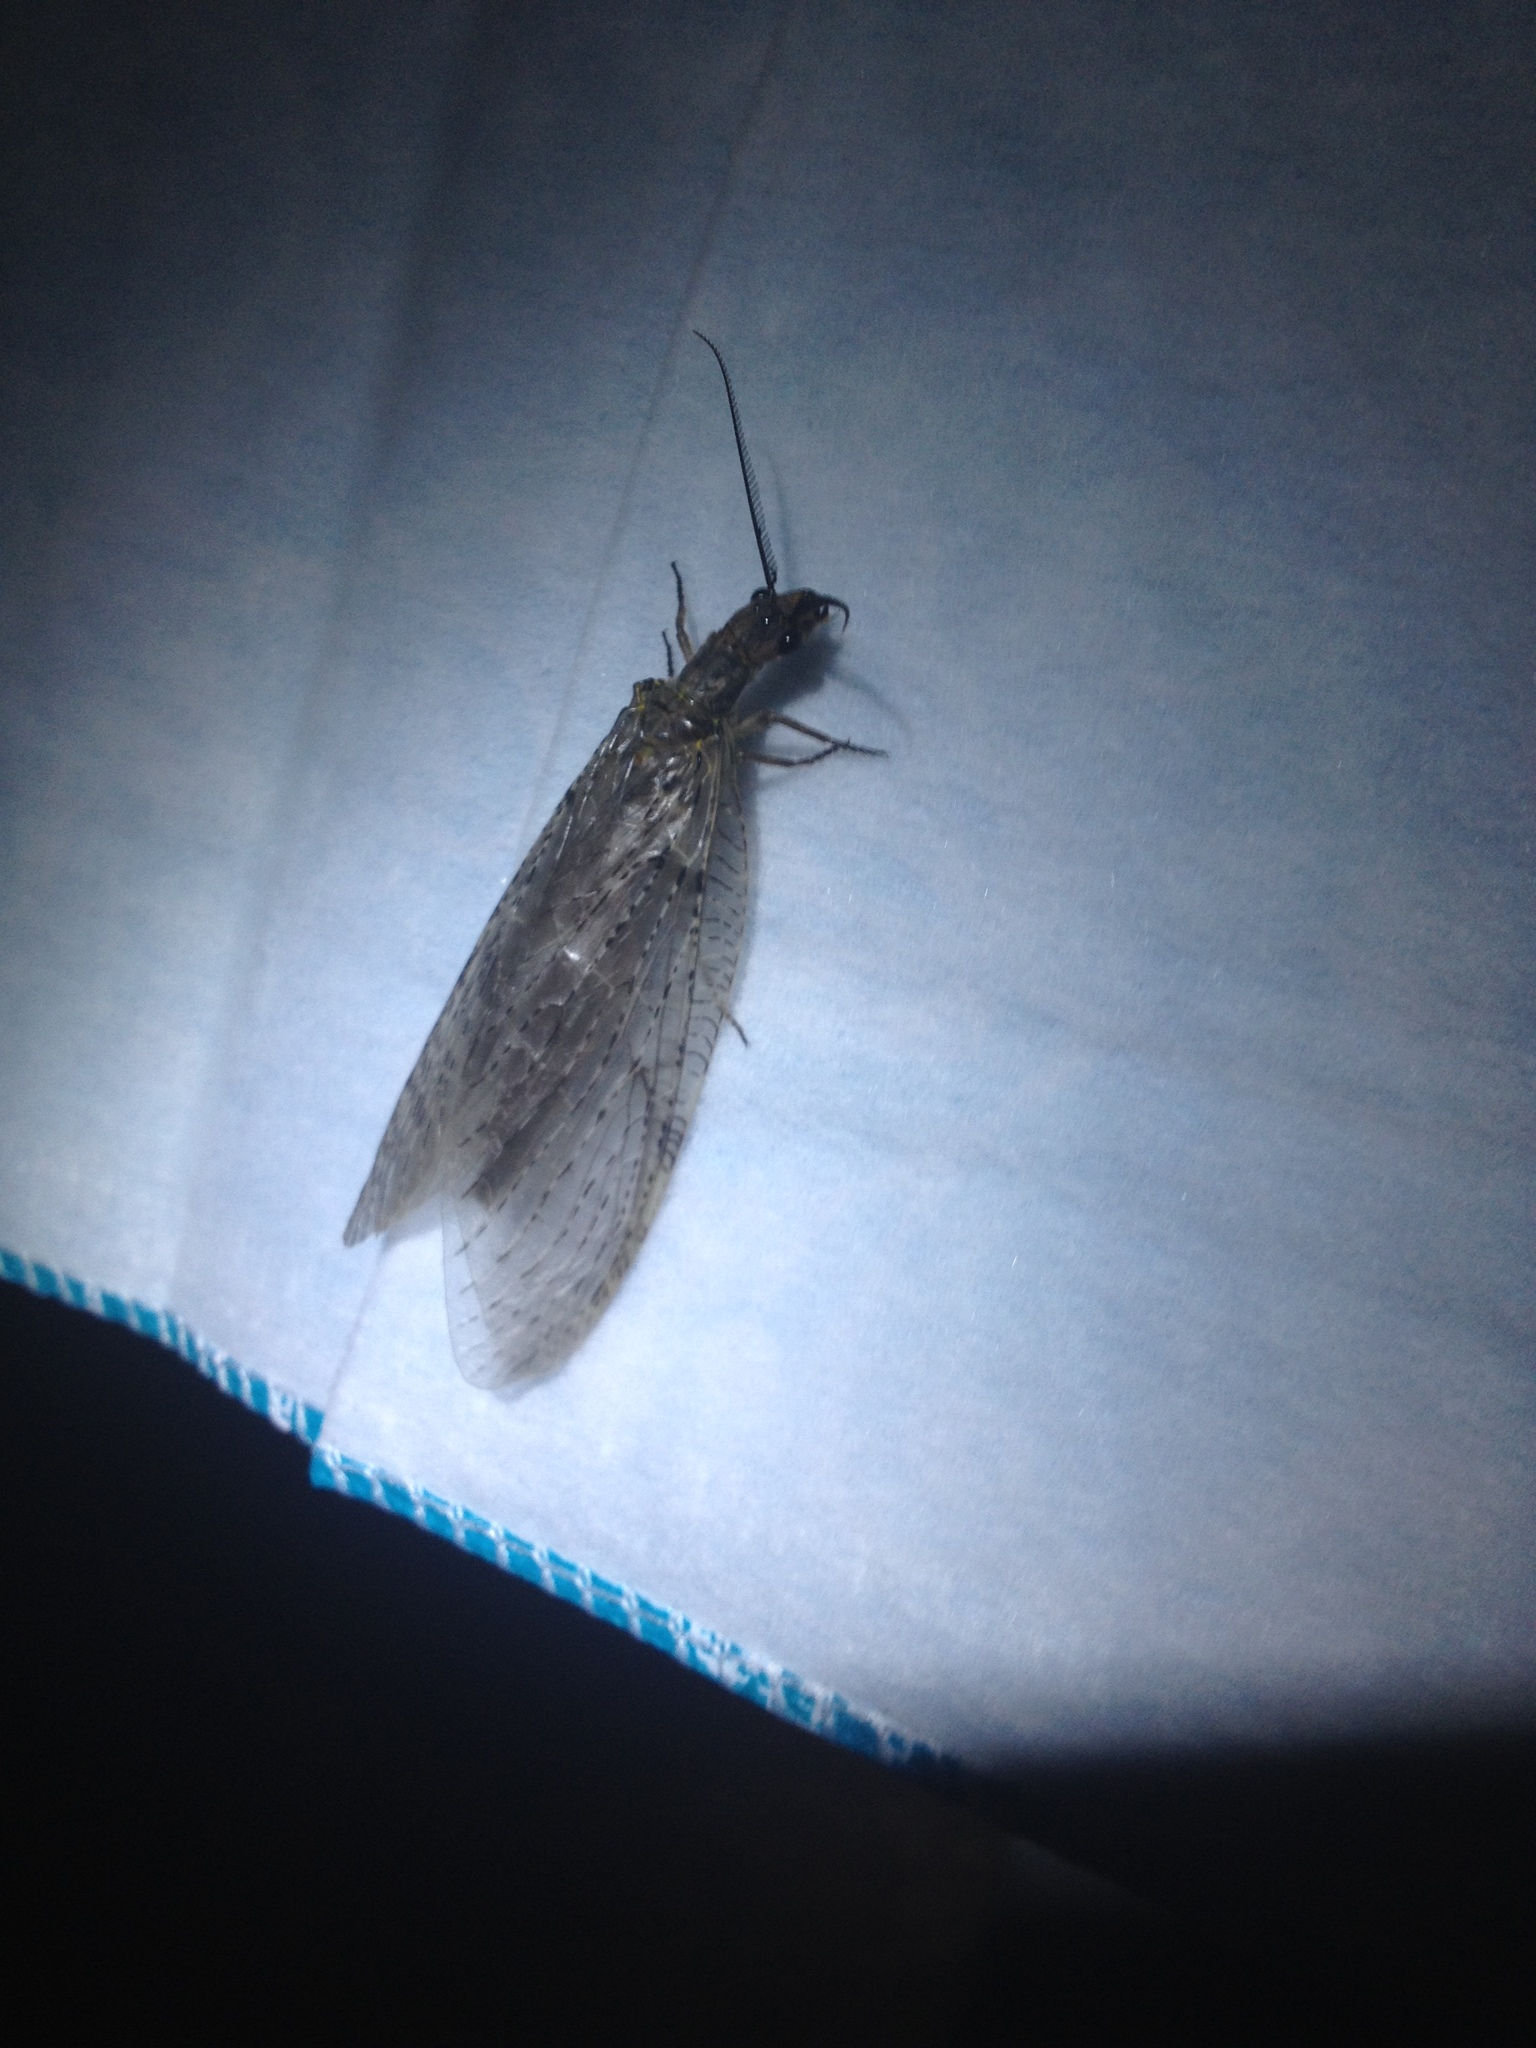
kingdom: Animalia
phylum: Arthropoda
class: Insecta
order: Megaloptera
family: Corydalidae
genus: Chauliodes
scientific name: Chauliodes pectinicornis
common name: Summer fishfly
